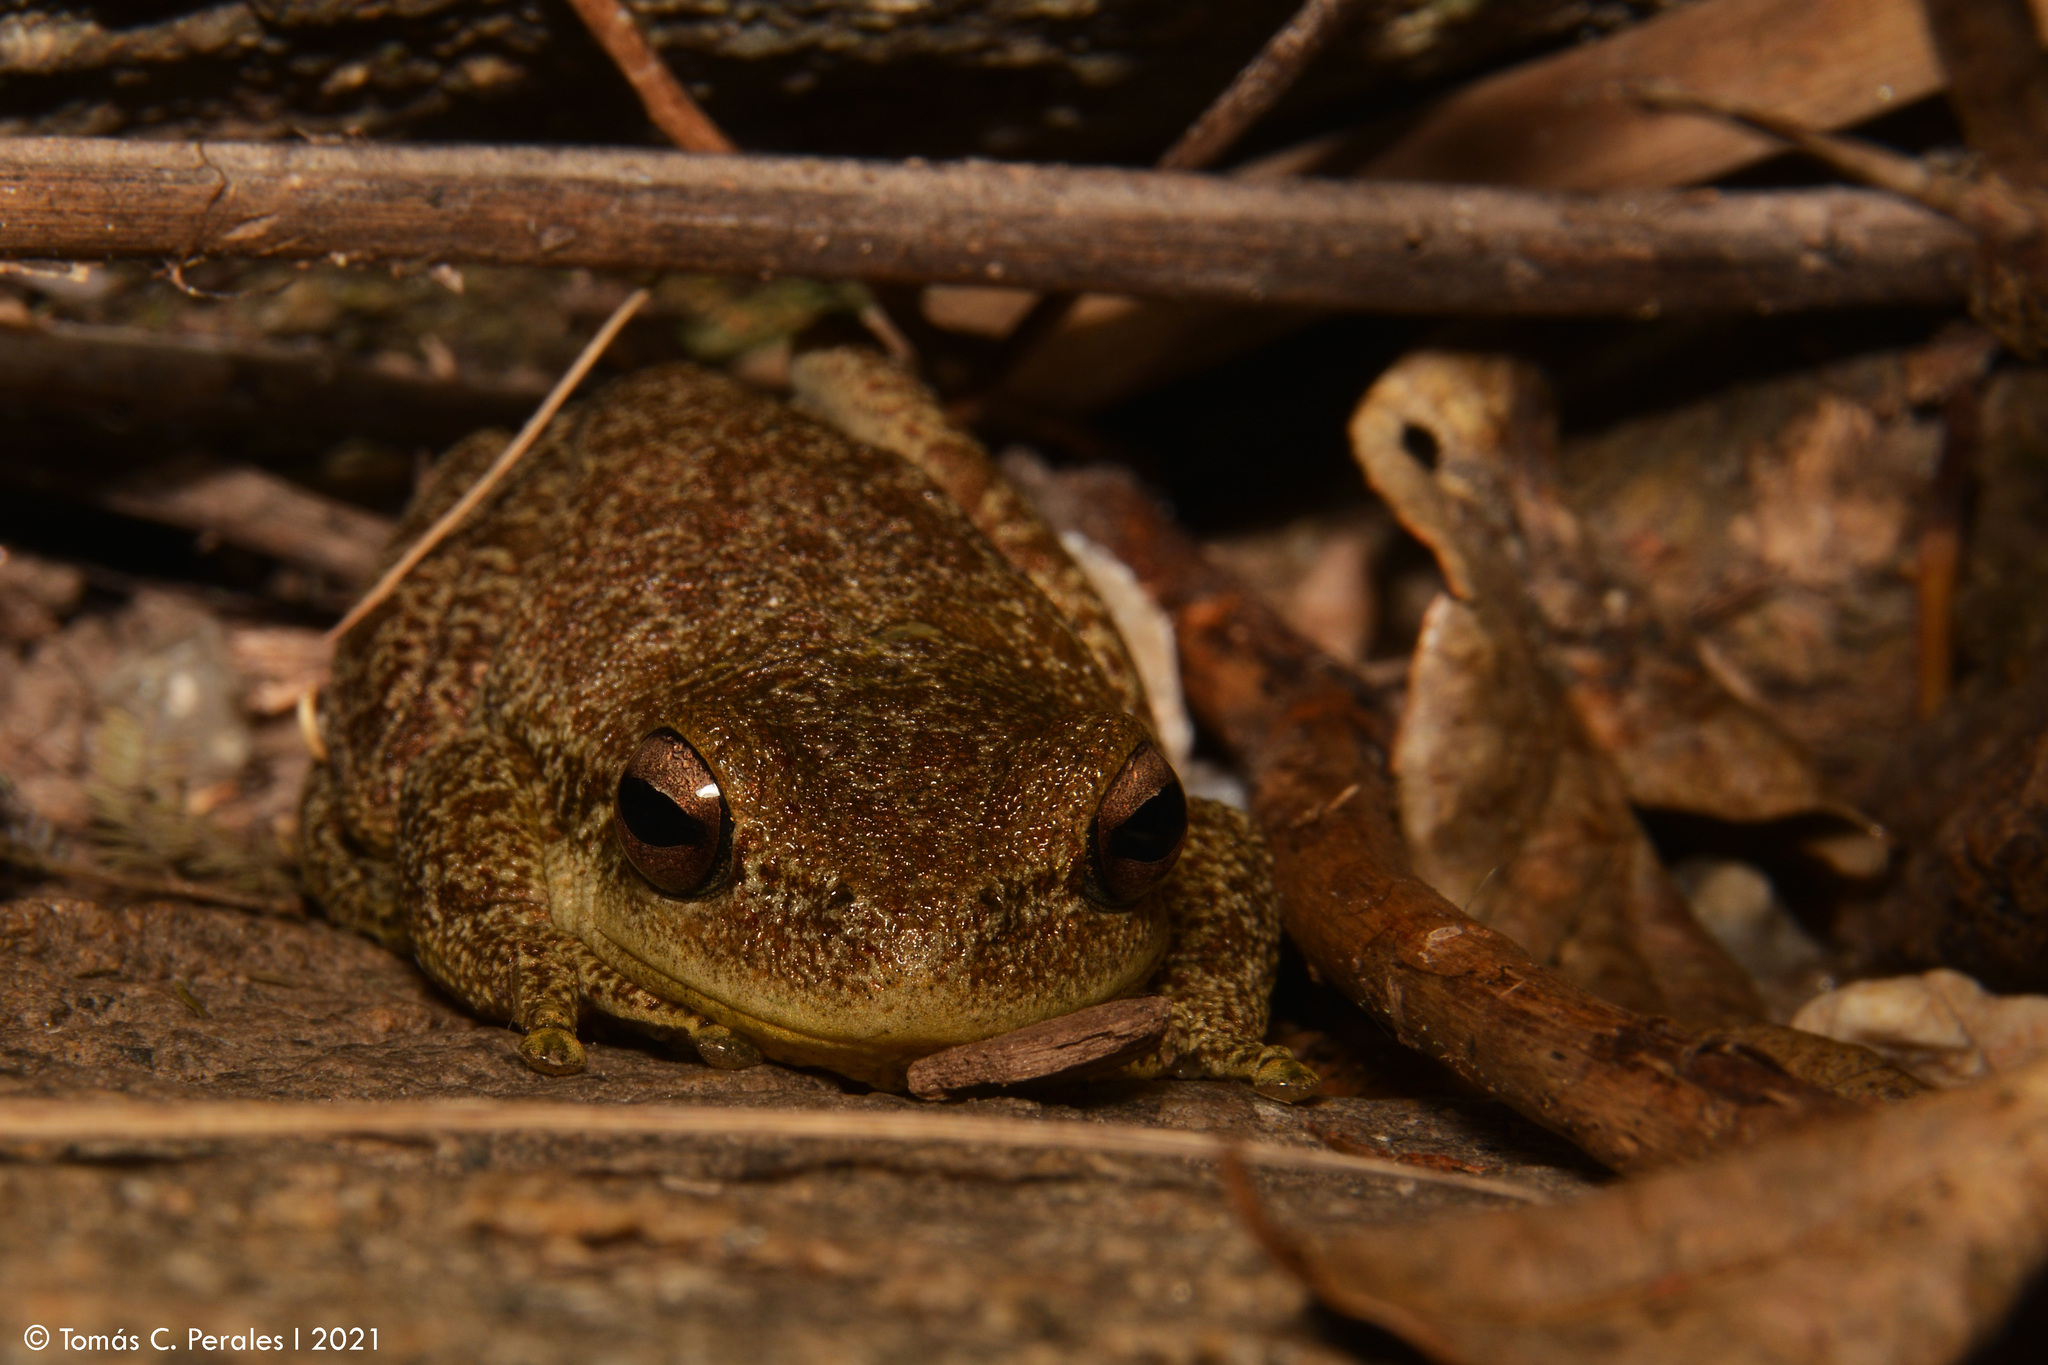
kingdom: Animalia
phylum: Chordata
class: Amphibia
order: Anura
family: Hylidae
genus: Boana
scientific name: Boana cordobae
